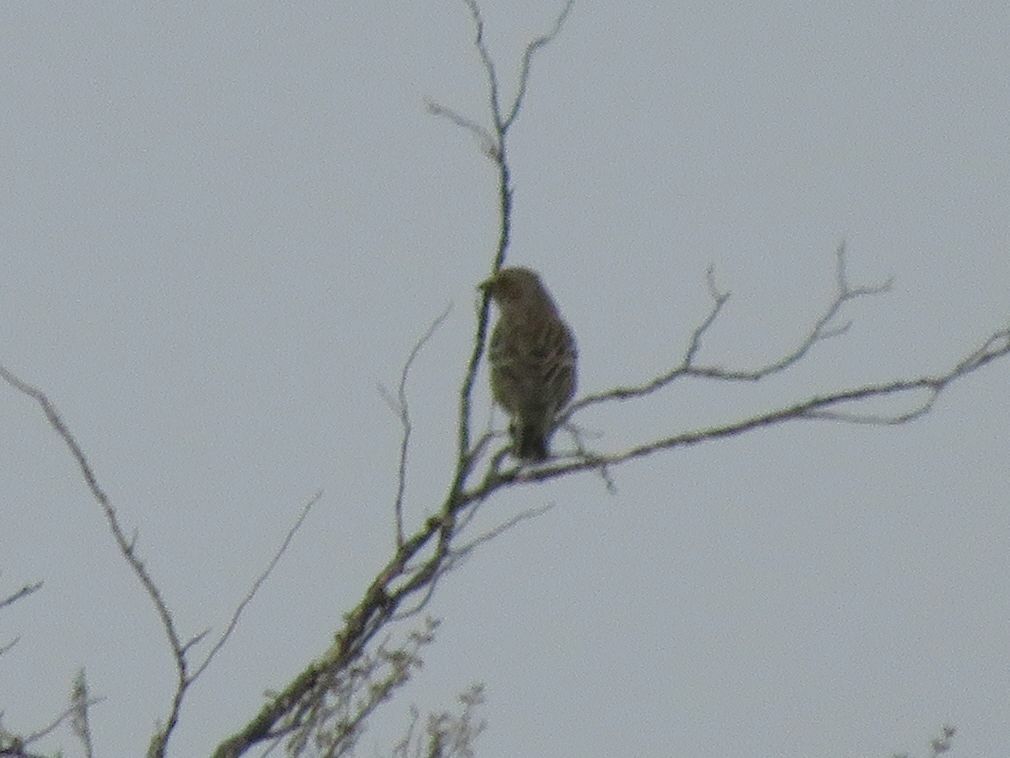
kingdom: Animalia
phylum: Chordata
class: Aves
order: Passeriformes
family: Thraupidae
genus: Rhopospina
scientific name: Rhopospina fruticeti
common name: Mourning sierra finch
